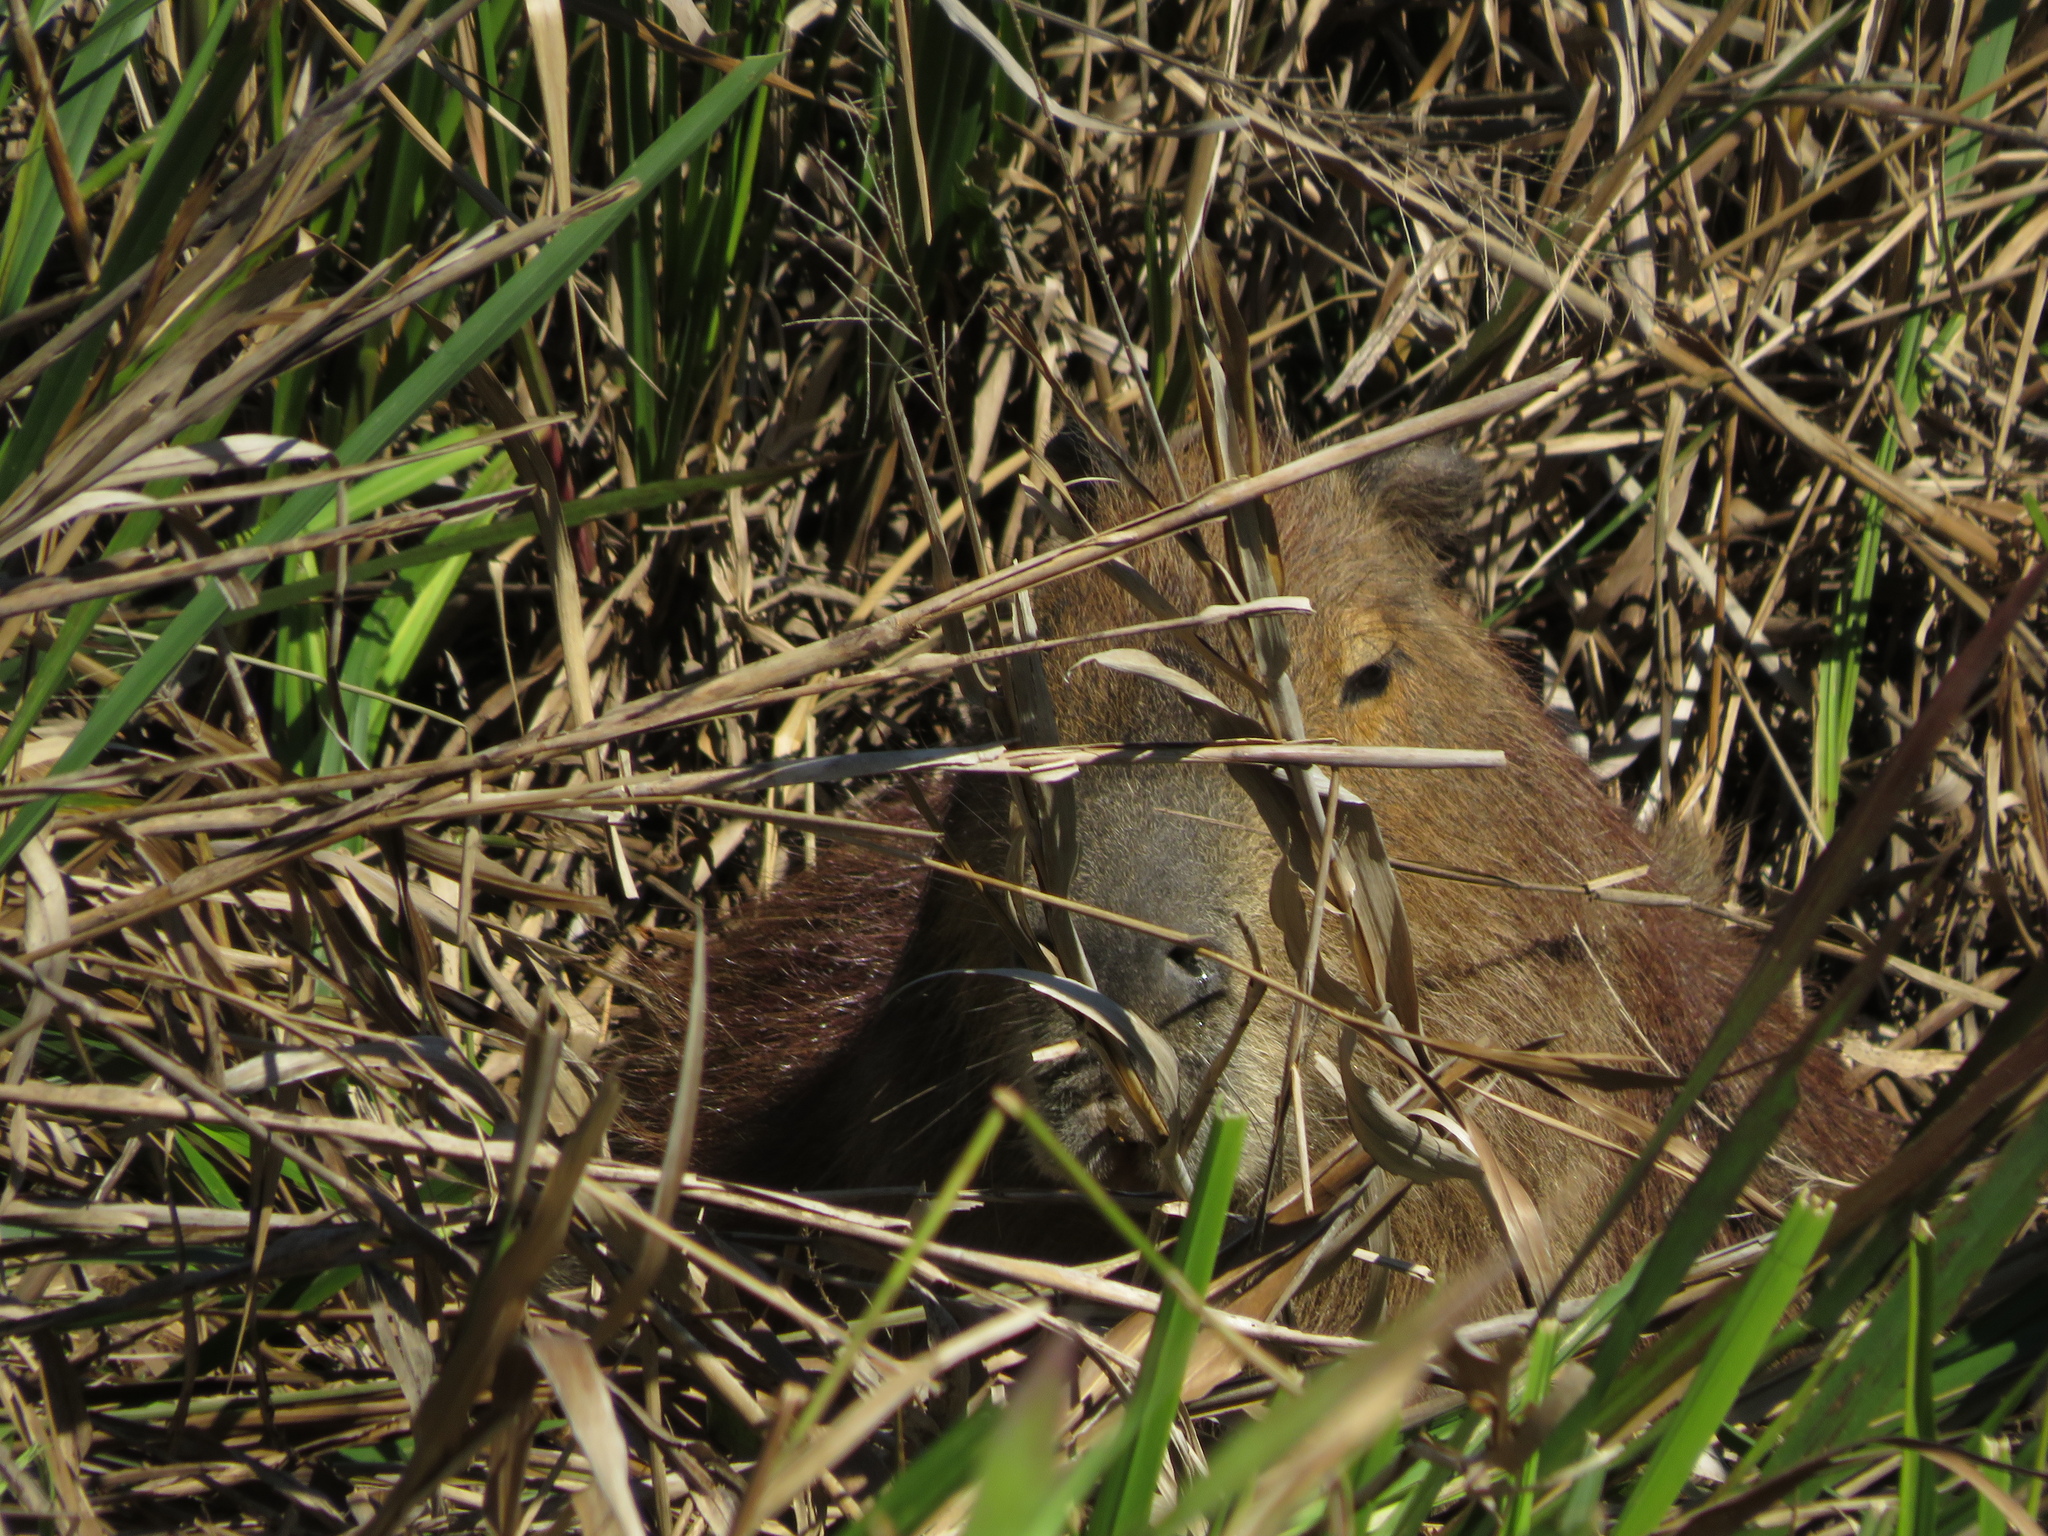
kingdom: Animalia
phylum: Chordata
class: Mammalia
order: Rodentia
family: Caviidae
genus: Hydrochoerus
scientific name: Hydrochoerus hydrochaeris
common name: Capybara
